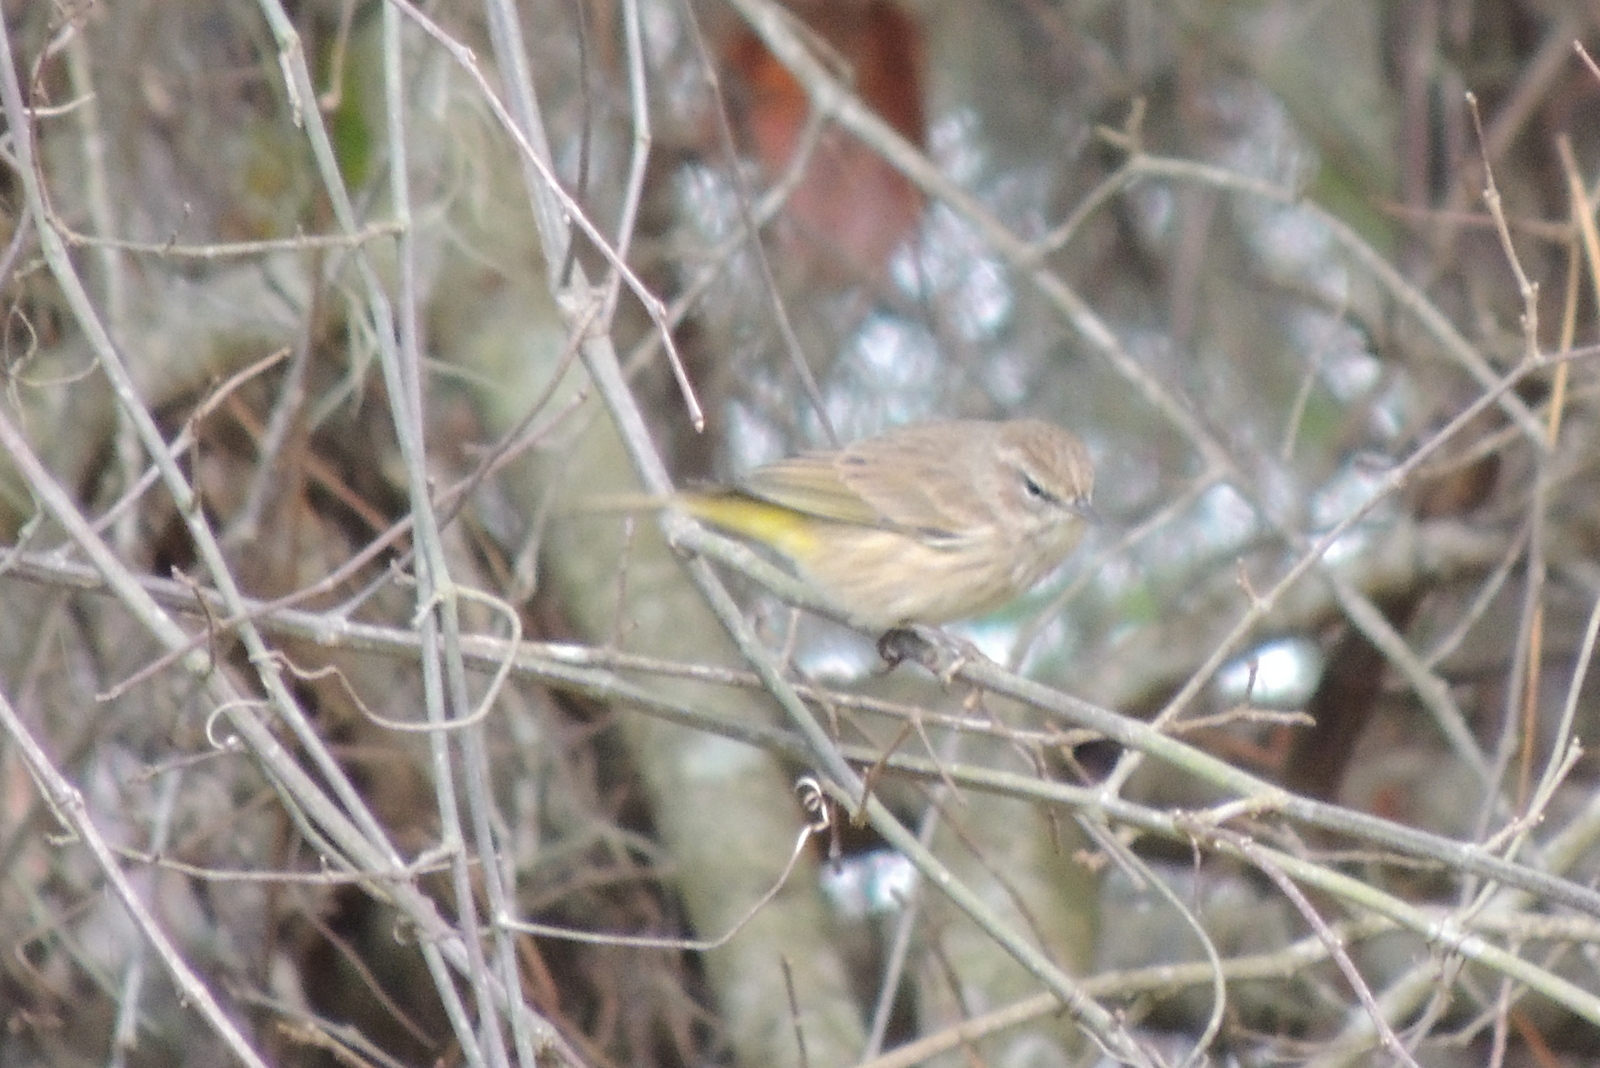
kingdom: Animalia
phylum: Chordata
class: Aves
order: Passeriformes
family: Parulidae
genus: Setophaga
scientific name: Setophaga palmarum
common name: Palm warbler
